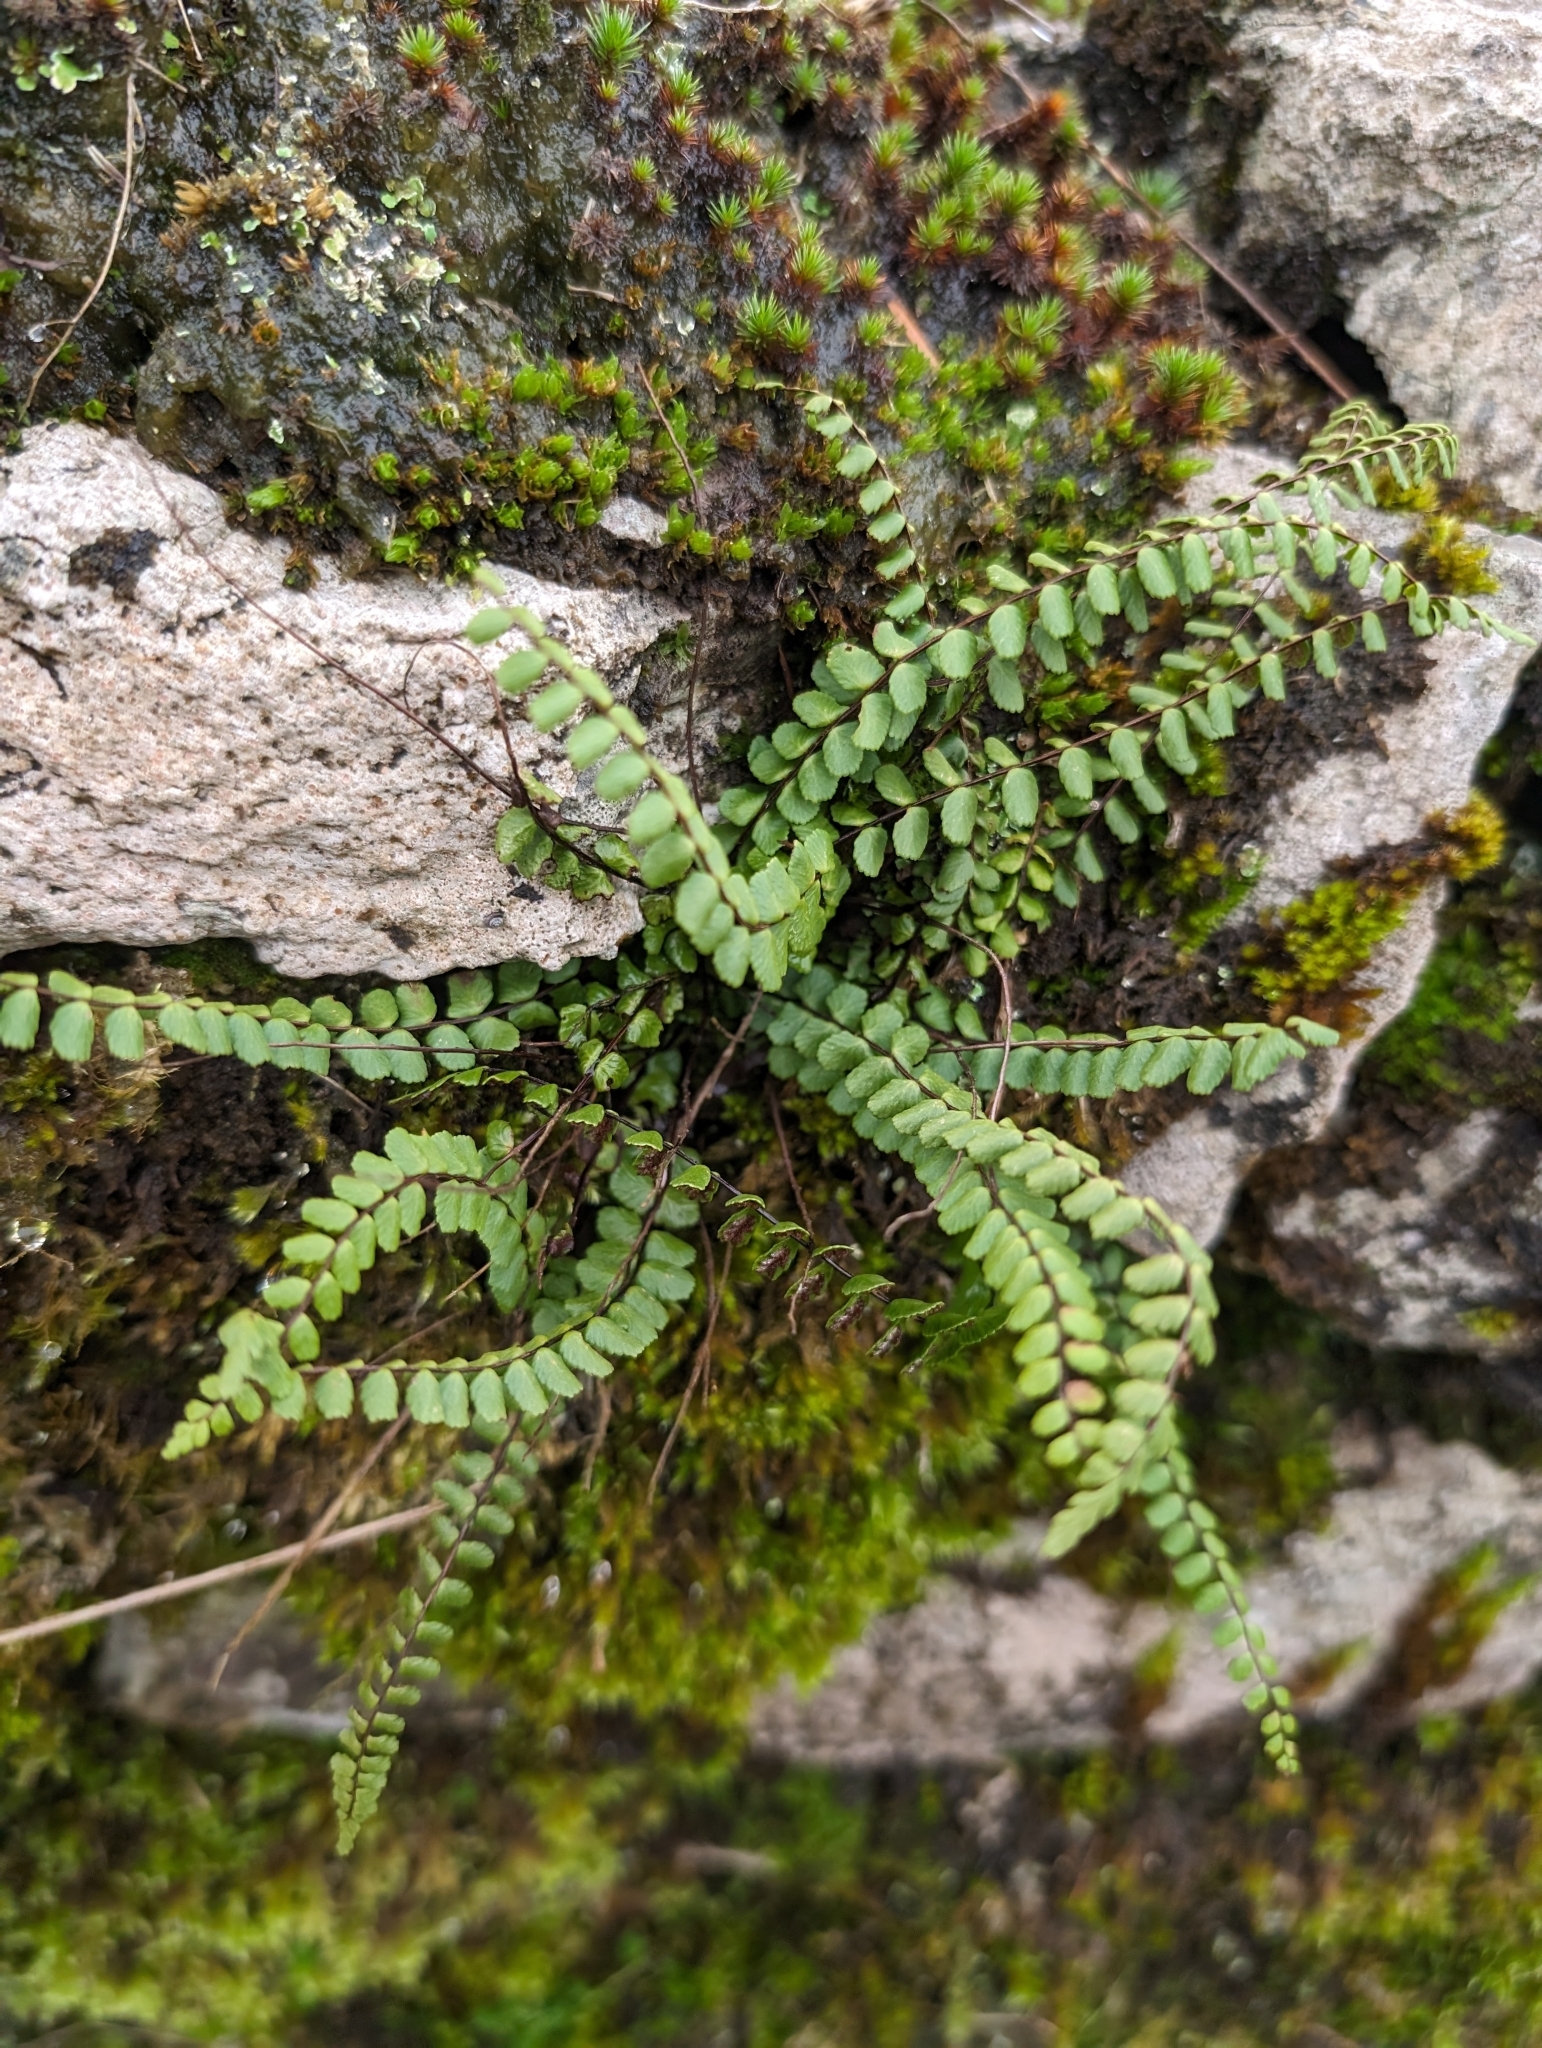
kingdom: Plantae
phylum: Tracheophyta
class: Polypodiopsida
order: Polypodiales
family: Aspleniaceae
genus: Asplenium
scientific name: Asplenium trichomanes
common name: Maidenhair spleenwort
